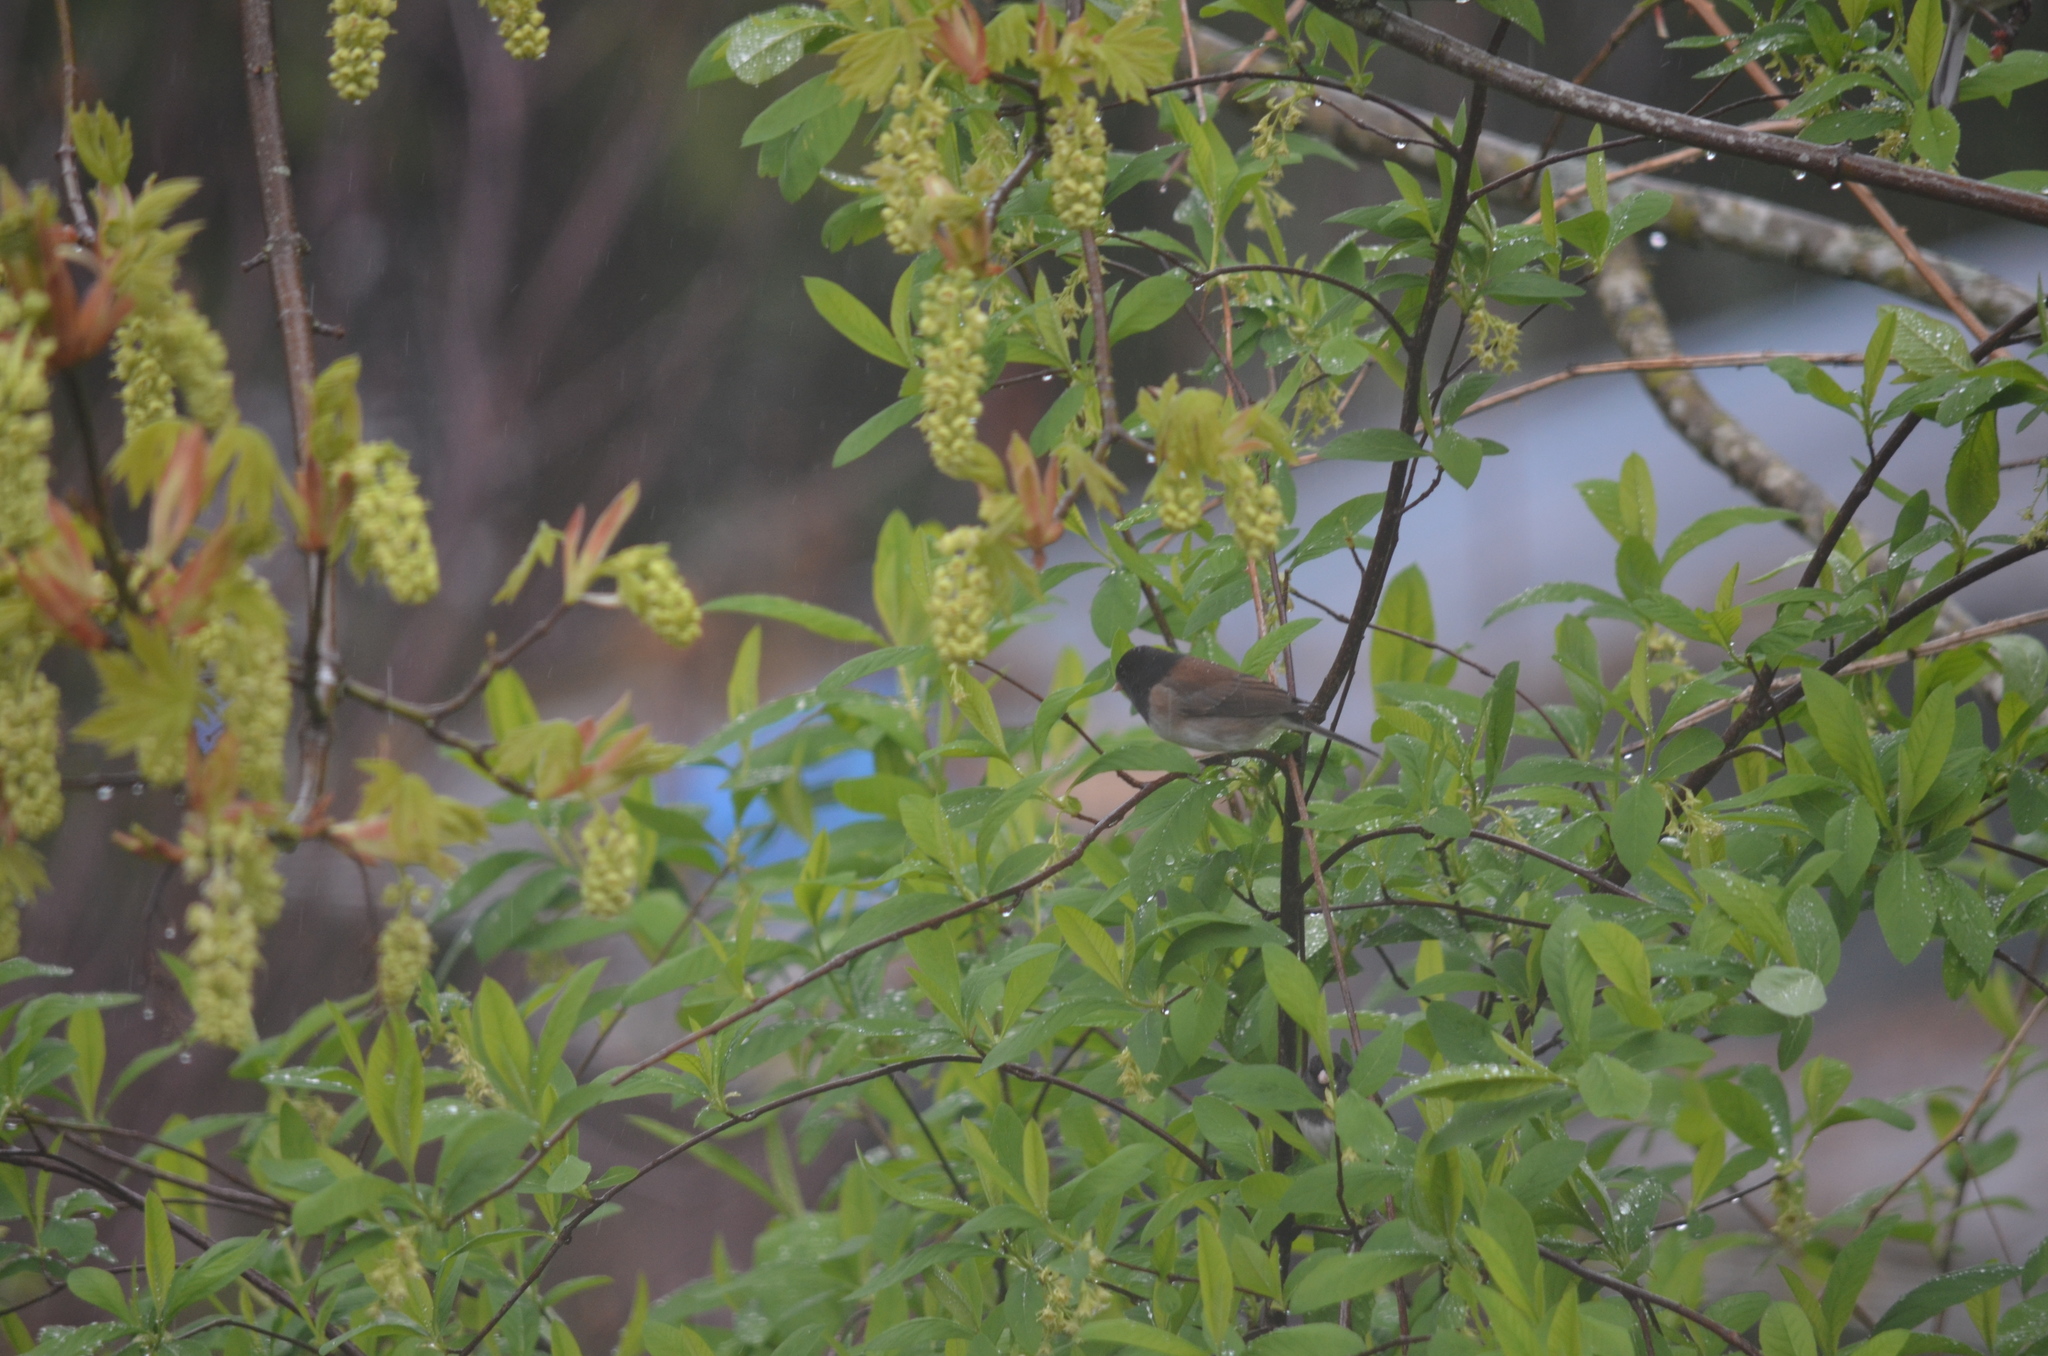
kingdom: Animalia
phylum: Chordata
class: Aves
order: Passeriformes
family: Passerellidae
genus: Junco
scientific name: Junco hyemalis
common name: Dark-eyed junco
